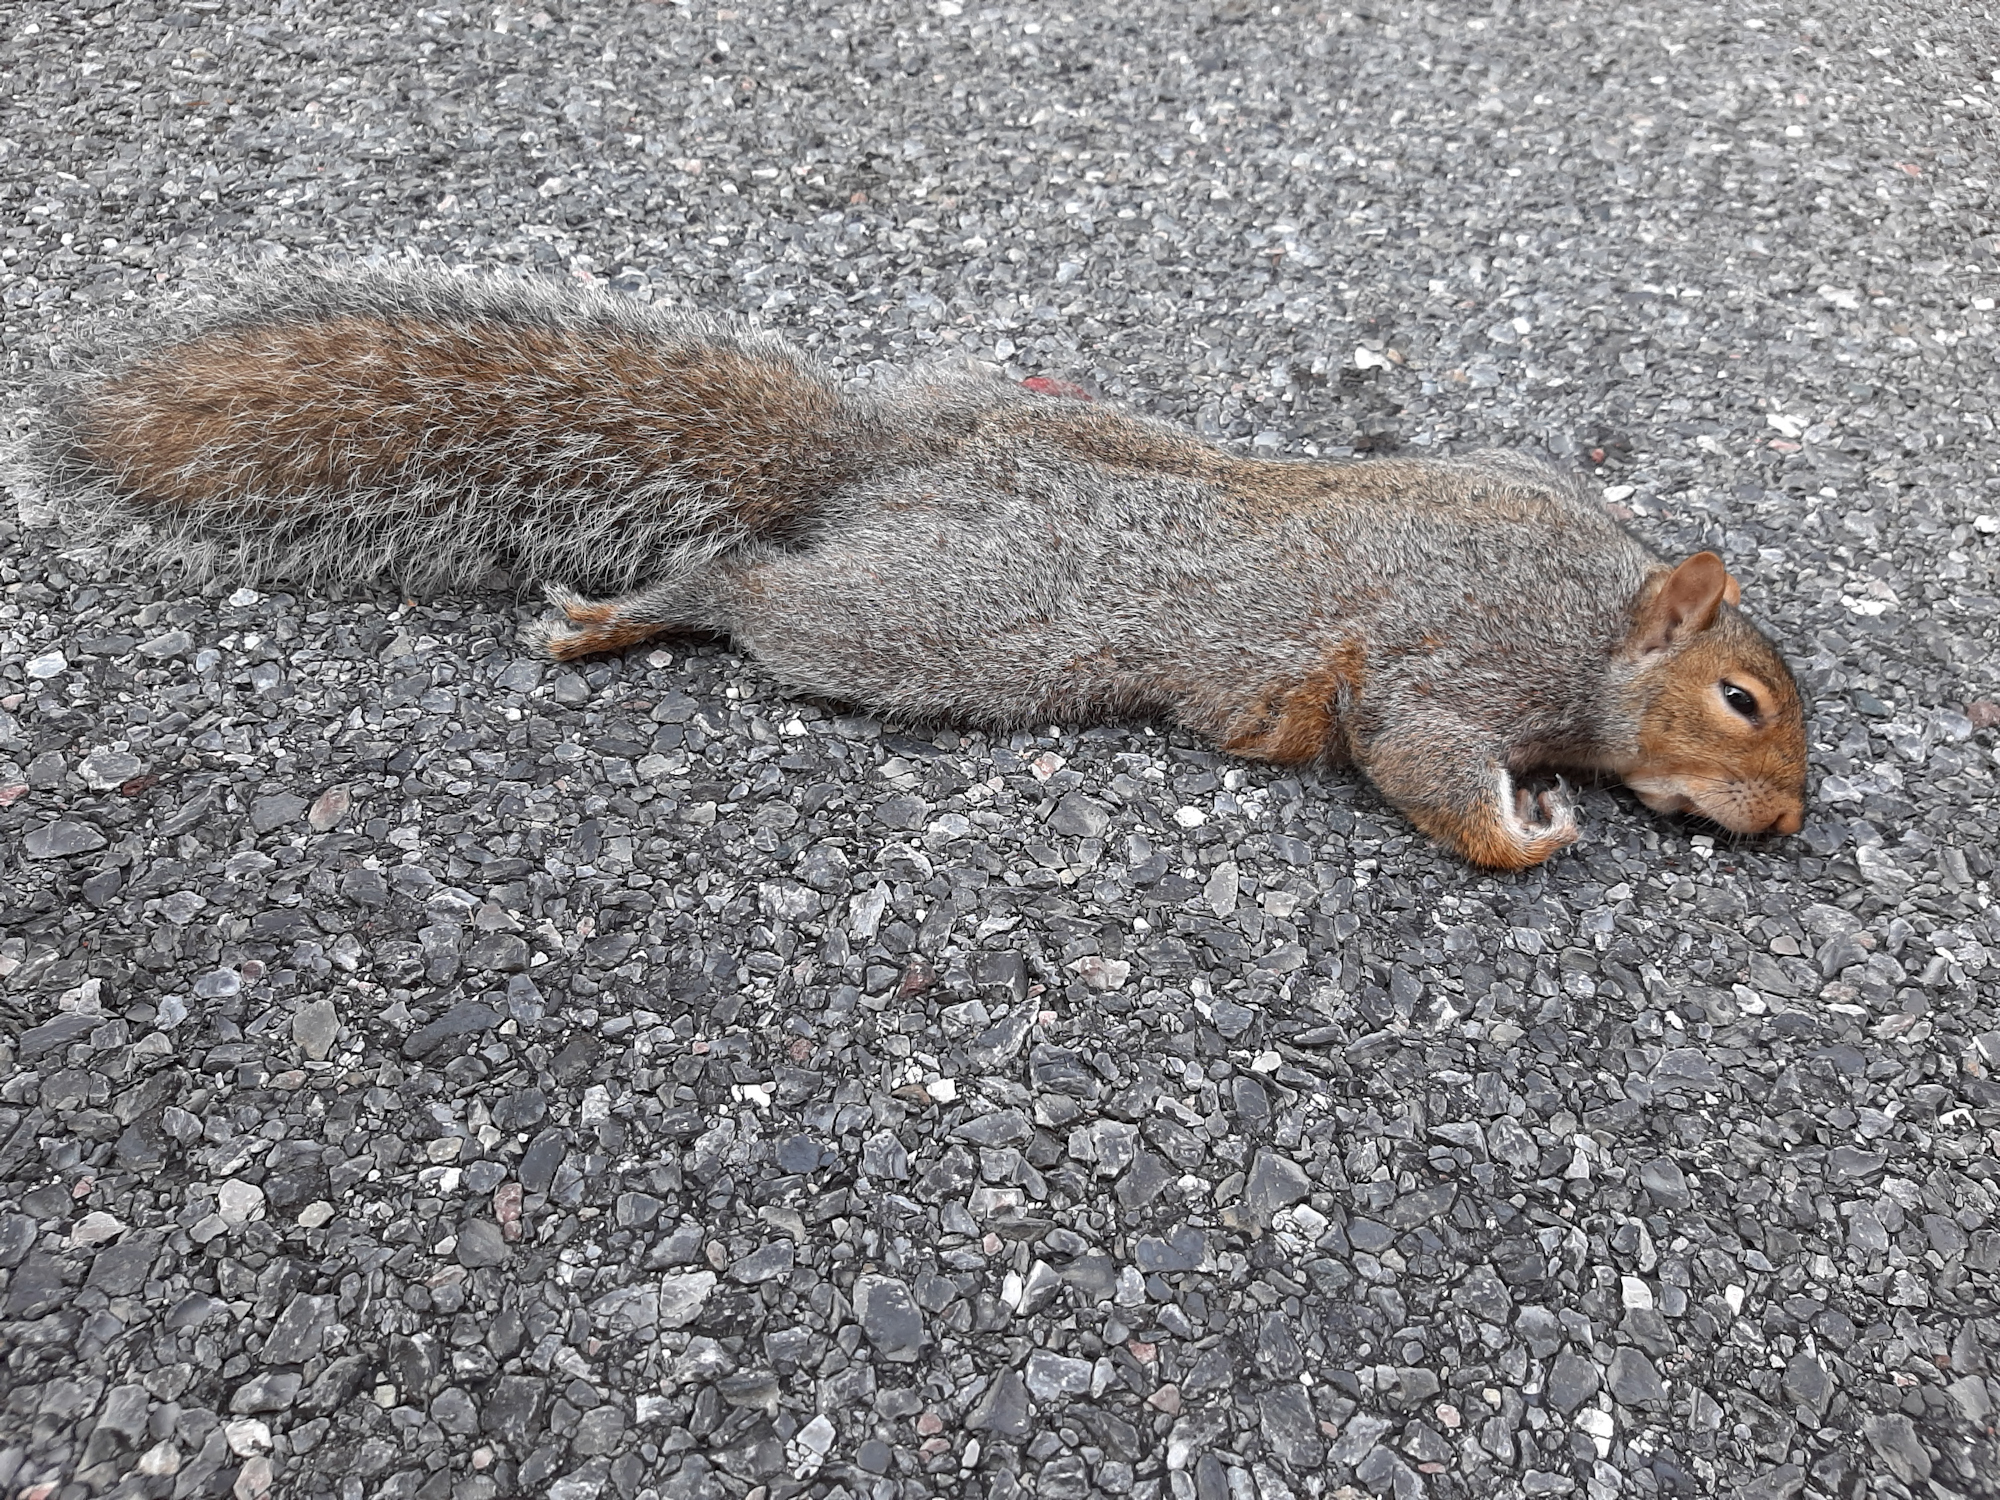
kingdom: Animalia
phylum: Chordata
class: Mammalia
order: Rodentia
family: Sciuridae
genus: Sciurus
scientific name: Sciurus carolinensis
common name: Eastern gray squirrel
